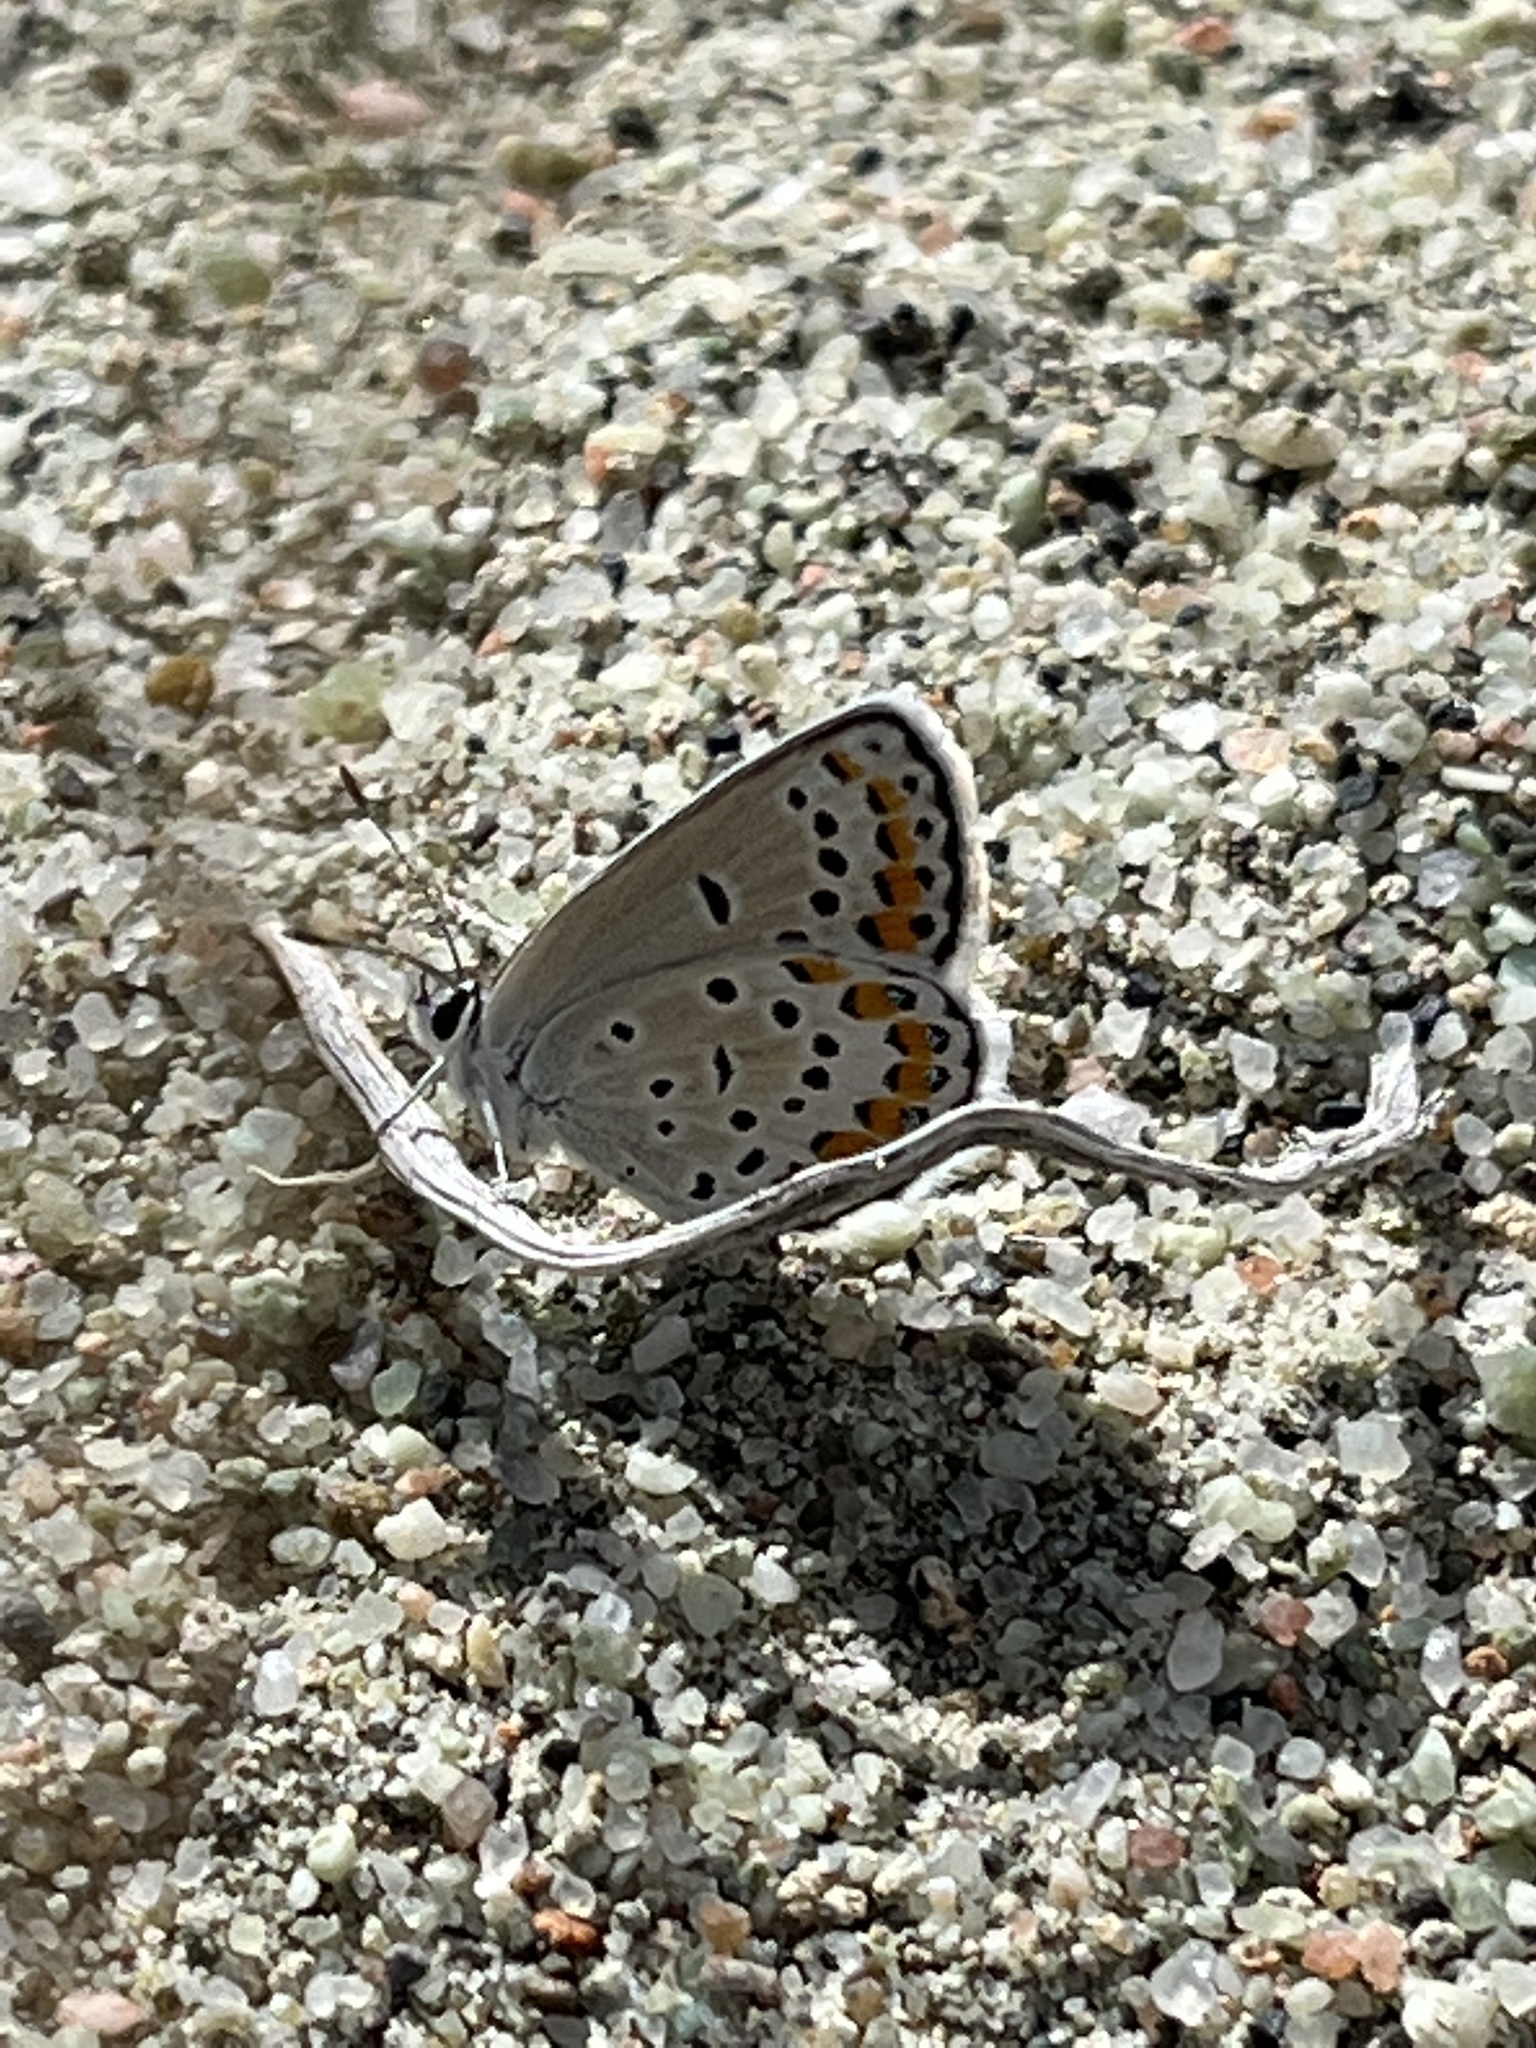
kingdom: Animalia
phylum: Arthropoda
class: Insecta
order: Lepidoptera
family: Lycaenidae
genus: Lycaeides
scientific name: Lycaeides melissa
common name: Melissa blue
